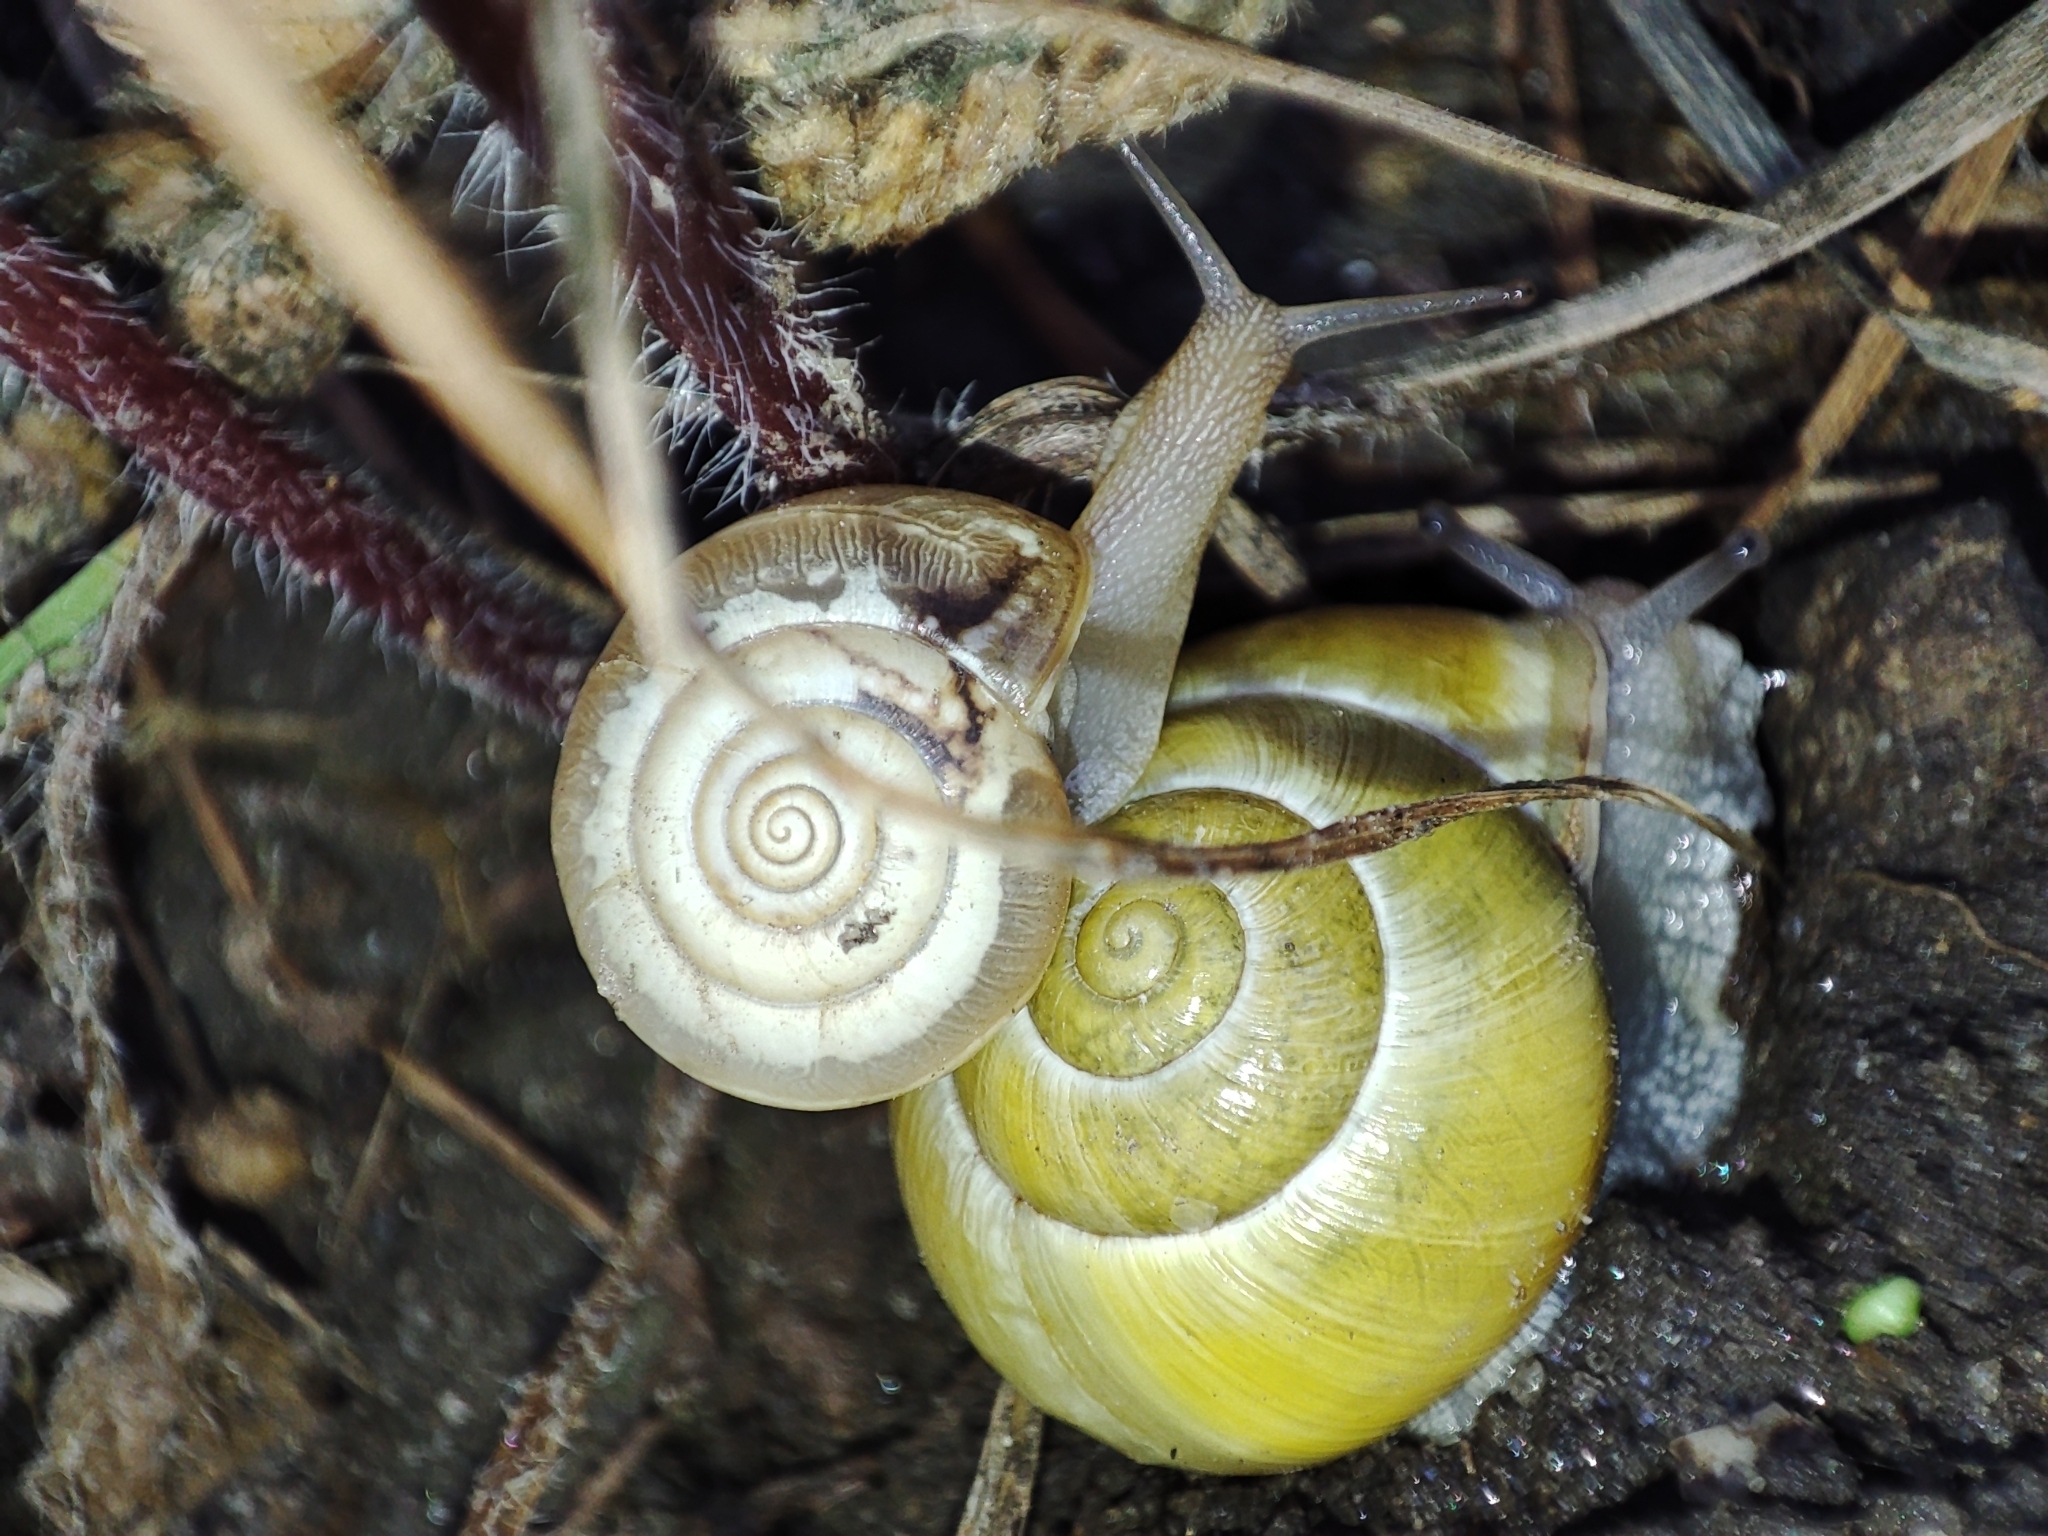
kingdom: Animalia
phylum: Mollusca
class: Gastropoda
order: Stylommatophora
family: Helicidae
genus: Cepaea
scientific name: Cepaea hortensis
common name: White-lip gardensnail
